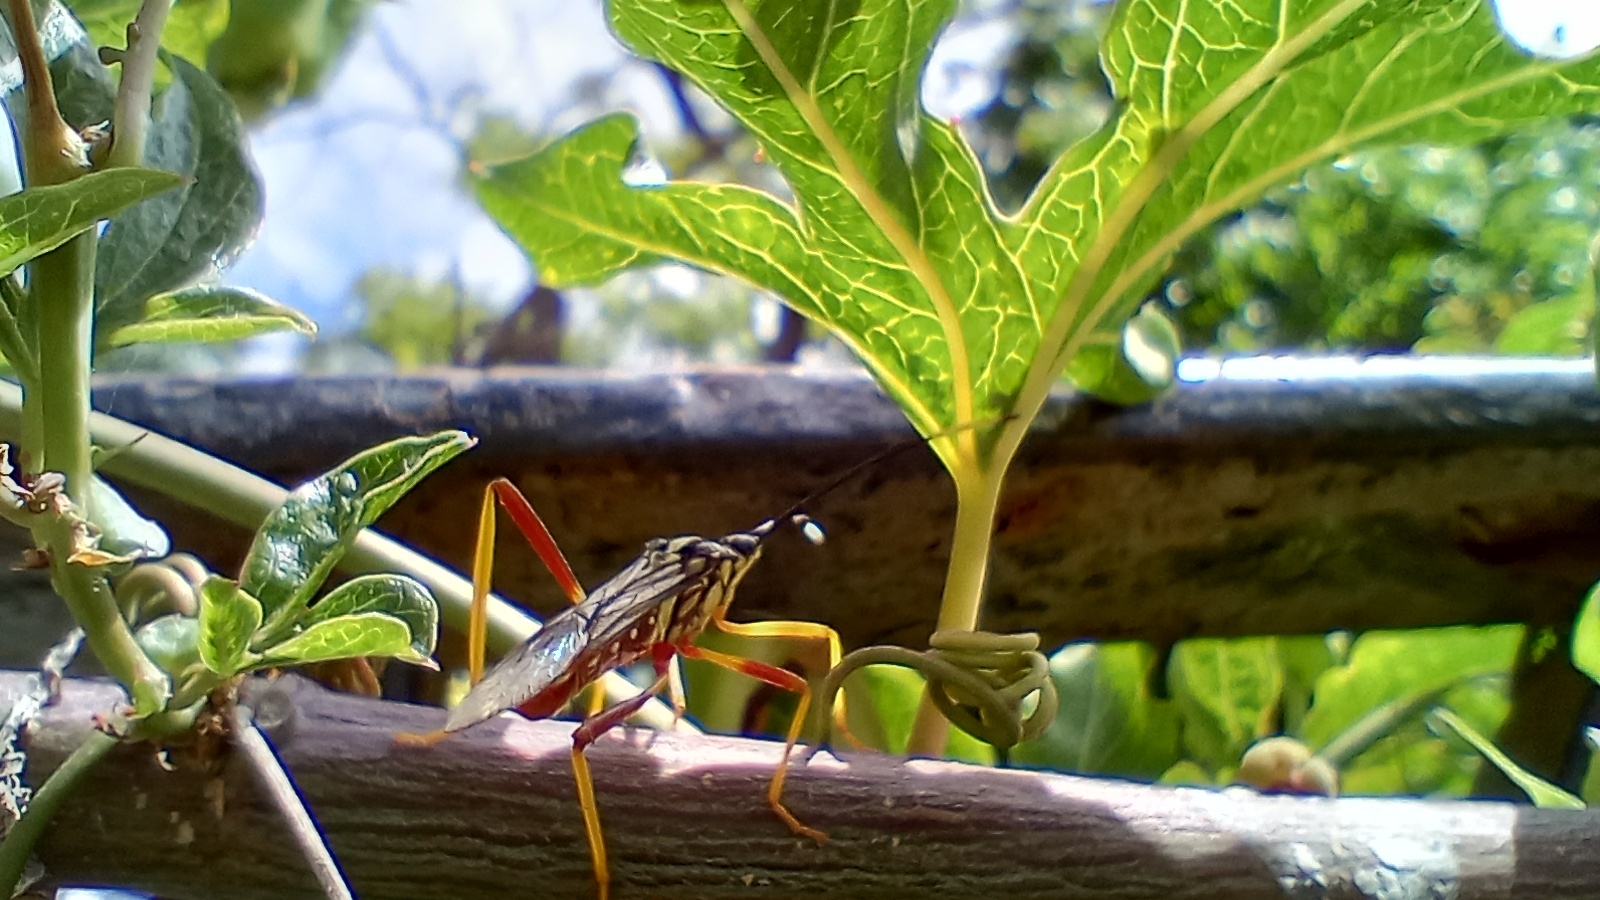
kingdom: Animalia
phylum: Arthropoda
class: Insecta
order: Hemiptera
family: Coreidae
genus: Holhymenia
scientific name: Holhymenia histrio
